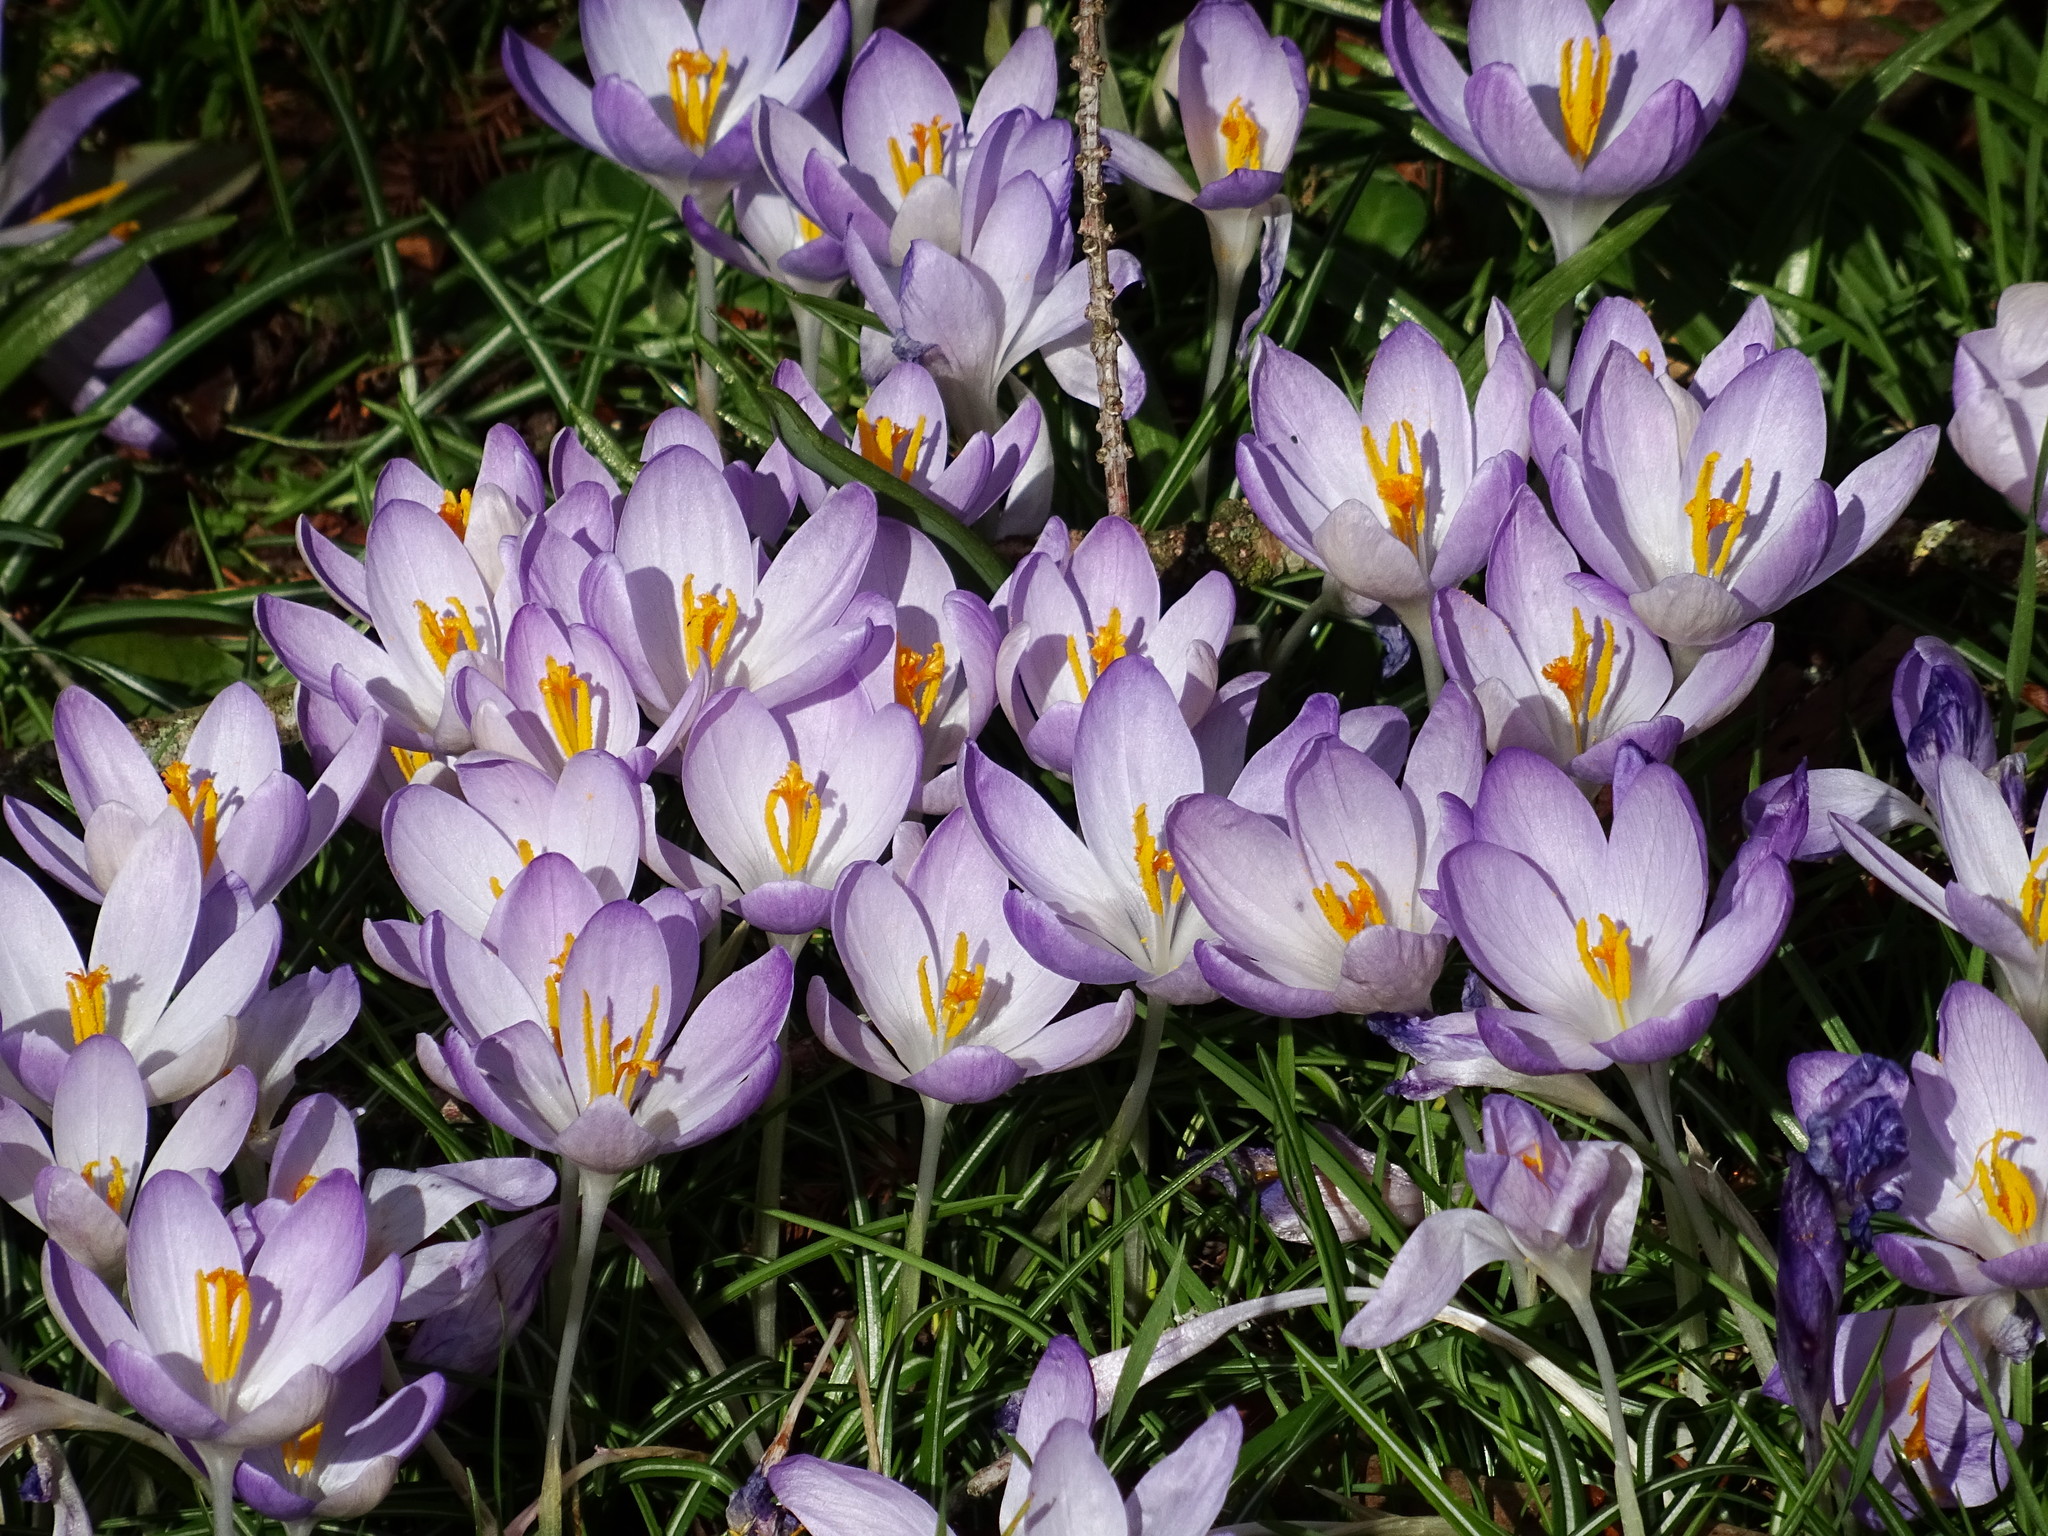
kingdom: Plantae
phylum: Tracheophyta
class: Liliopsida
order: Asparagales
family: Iridaceae
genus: Crocus
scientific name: Crocus tommasinianus
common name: Early crocus
